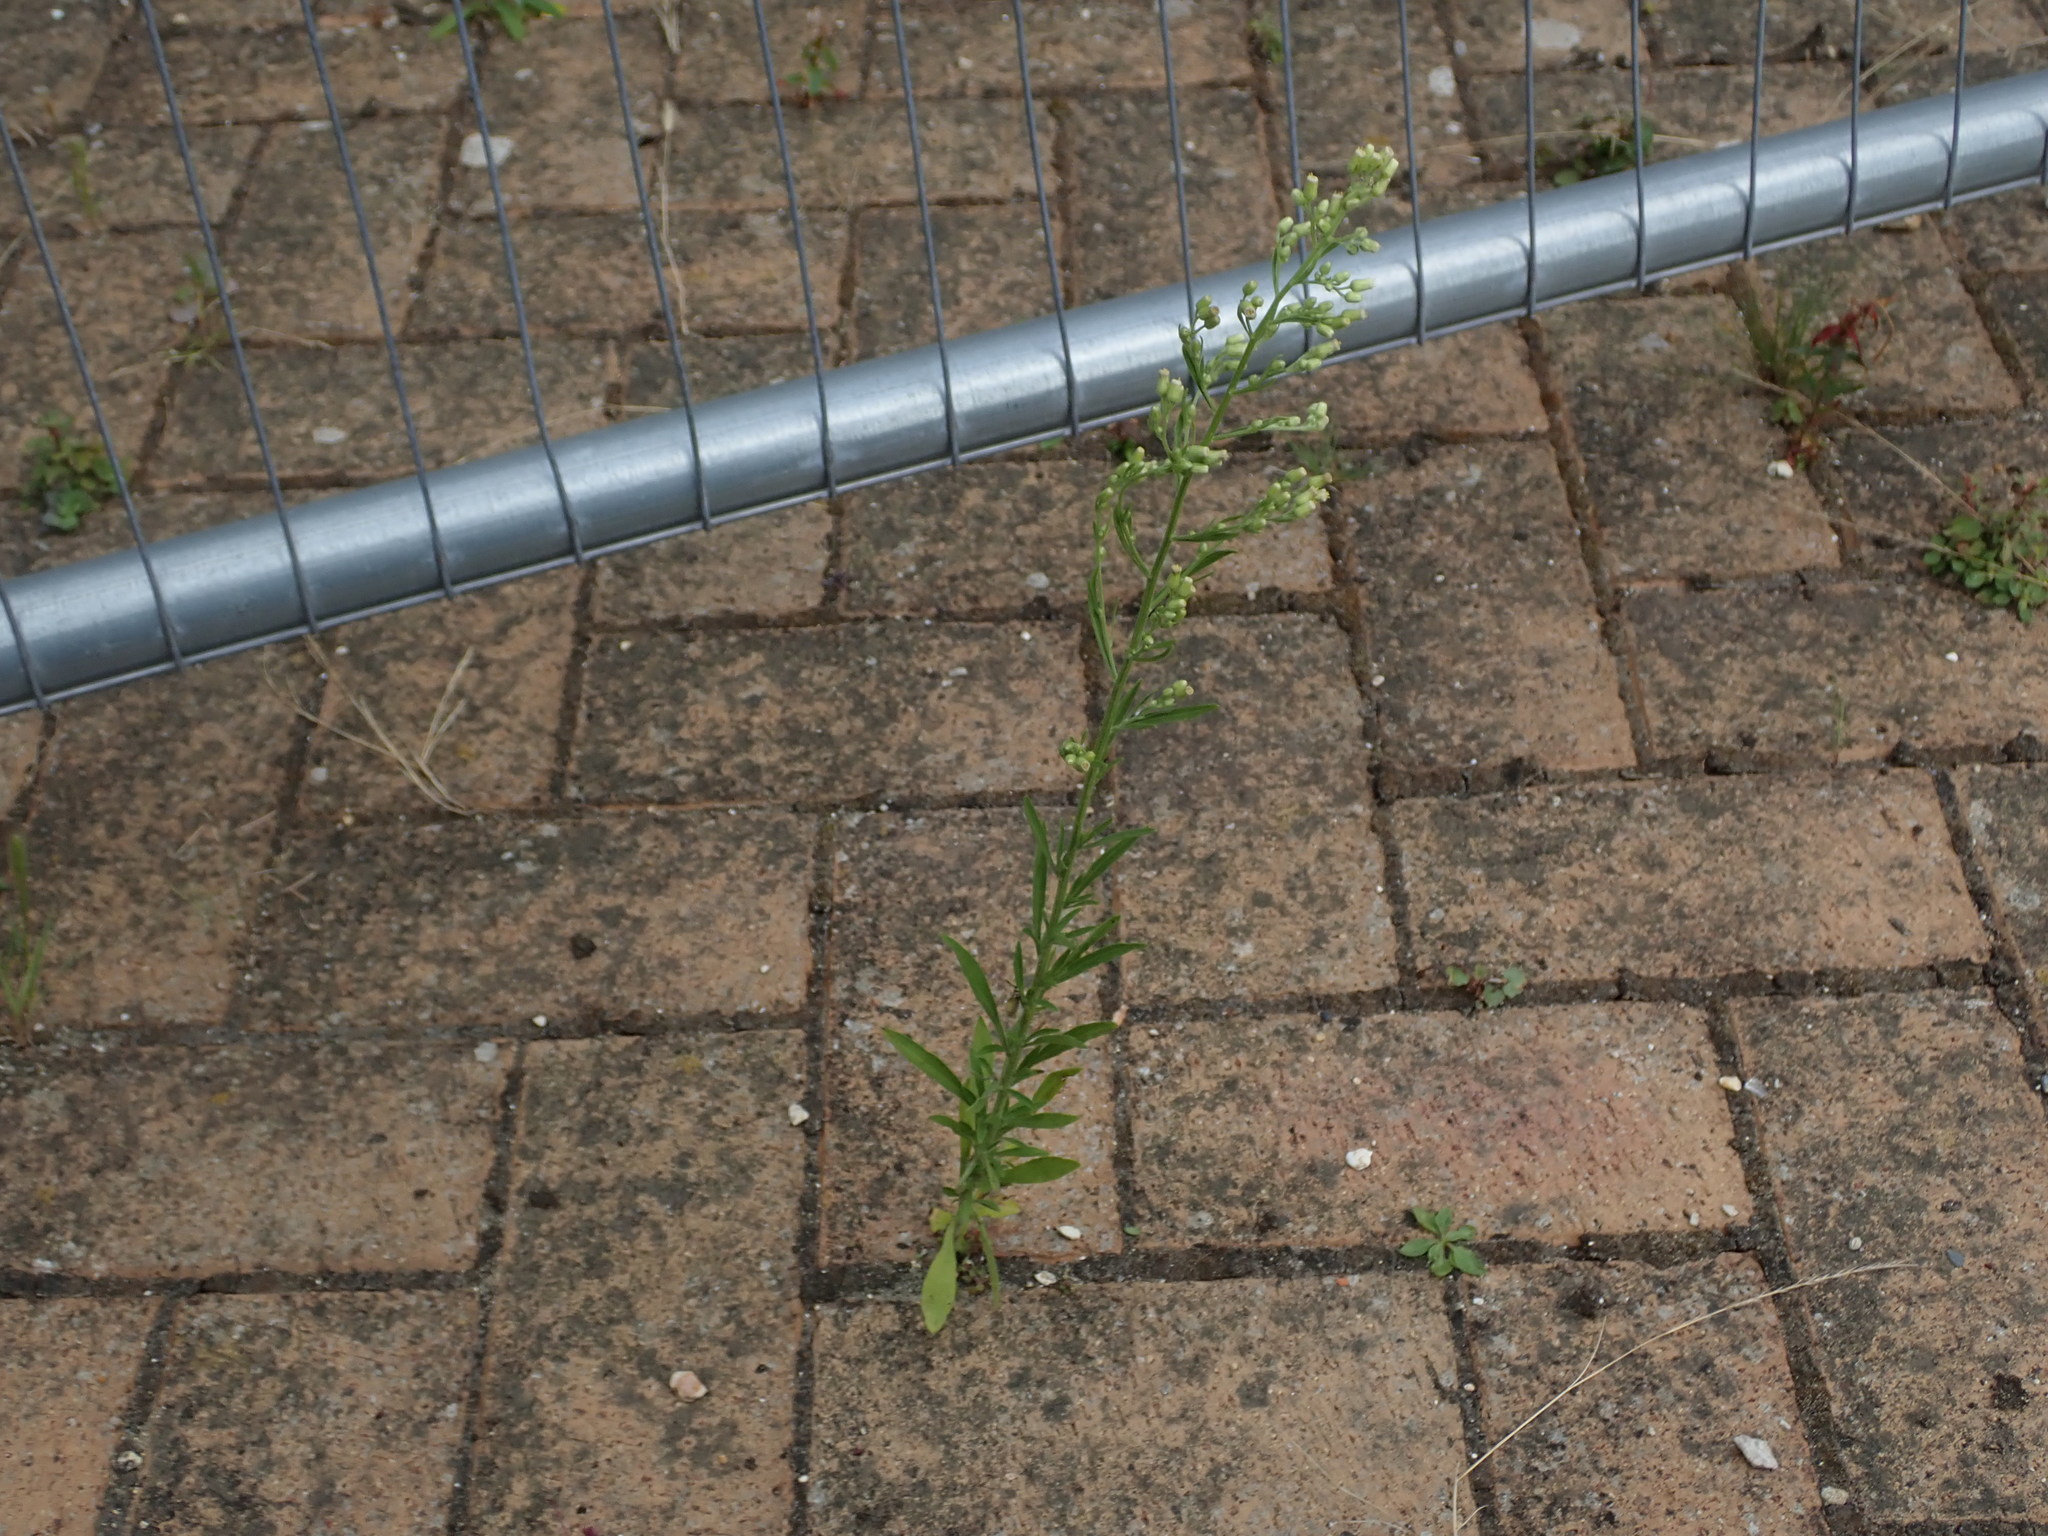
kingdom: Plantae
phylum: Tracheophyta
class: Magnoliopsida
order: Asterales
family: Asteraceae
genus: Erigeron
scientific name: Erigeron sumatrensis
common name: Daisy
